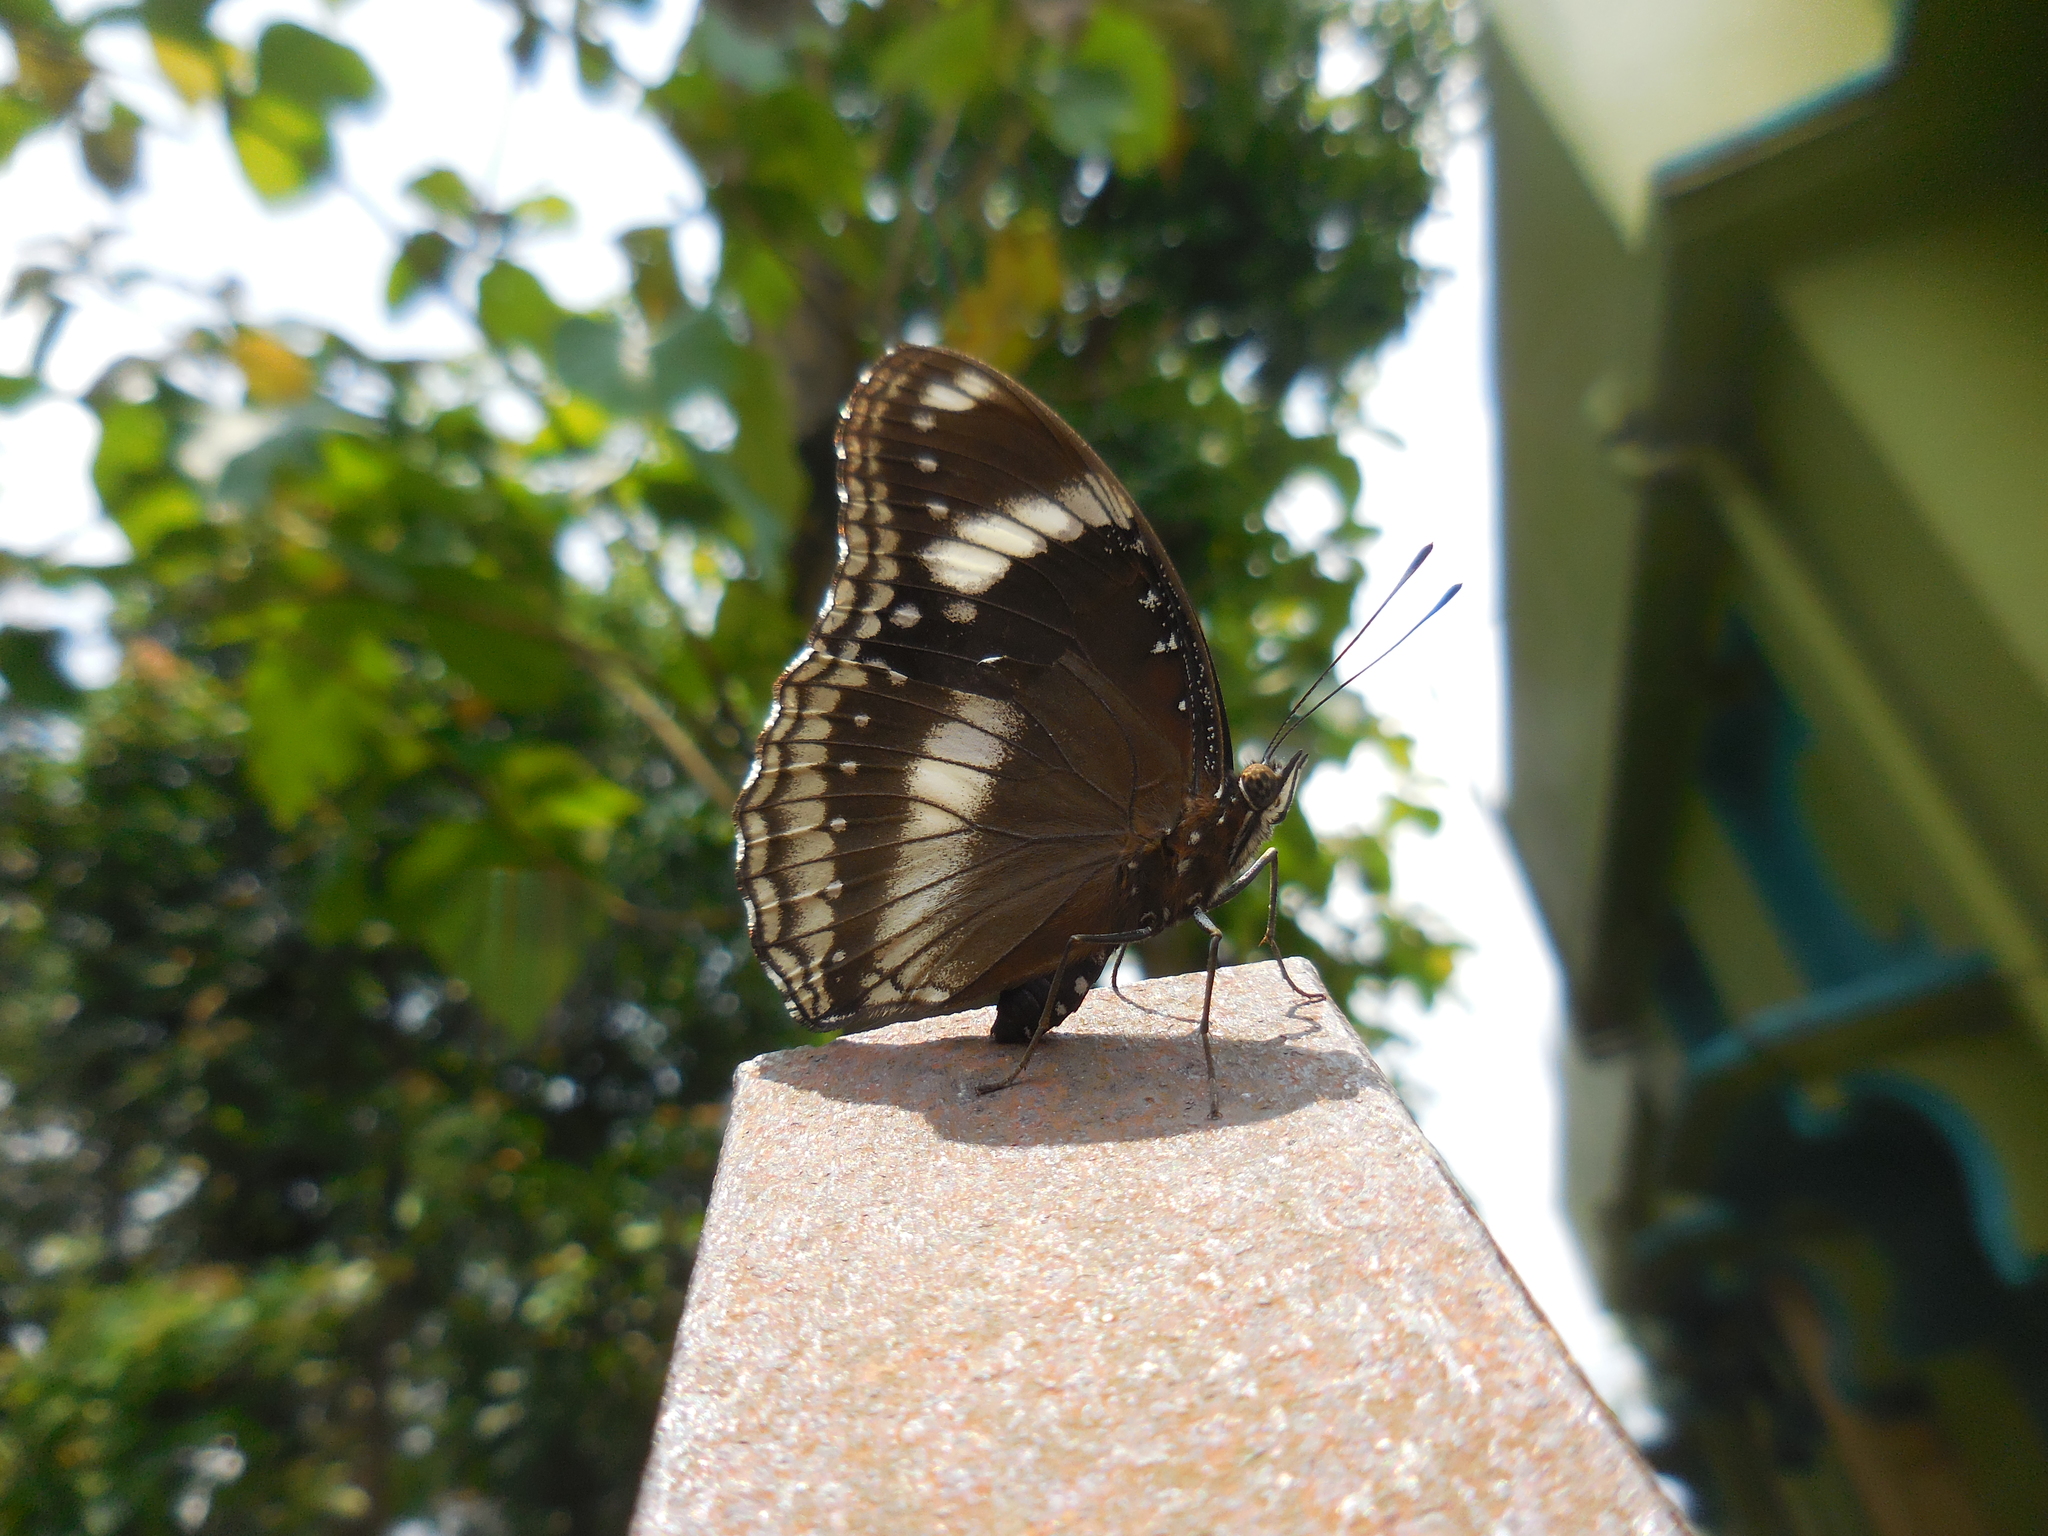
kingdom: Animalia
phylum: Arthropoda
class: Insecta
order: Lepidoptera
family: Nymphalidae
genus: Hypolimnas
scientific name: Hypolimnas bolina
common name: Great eggfly
